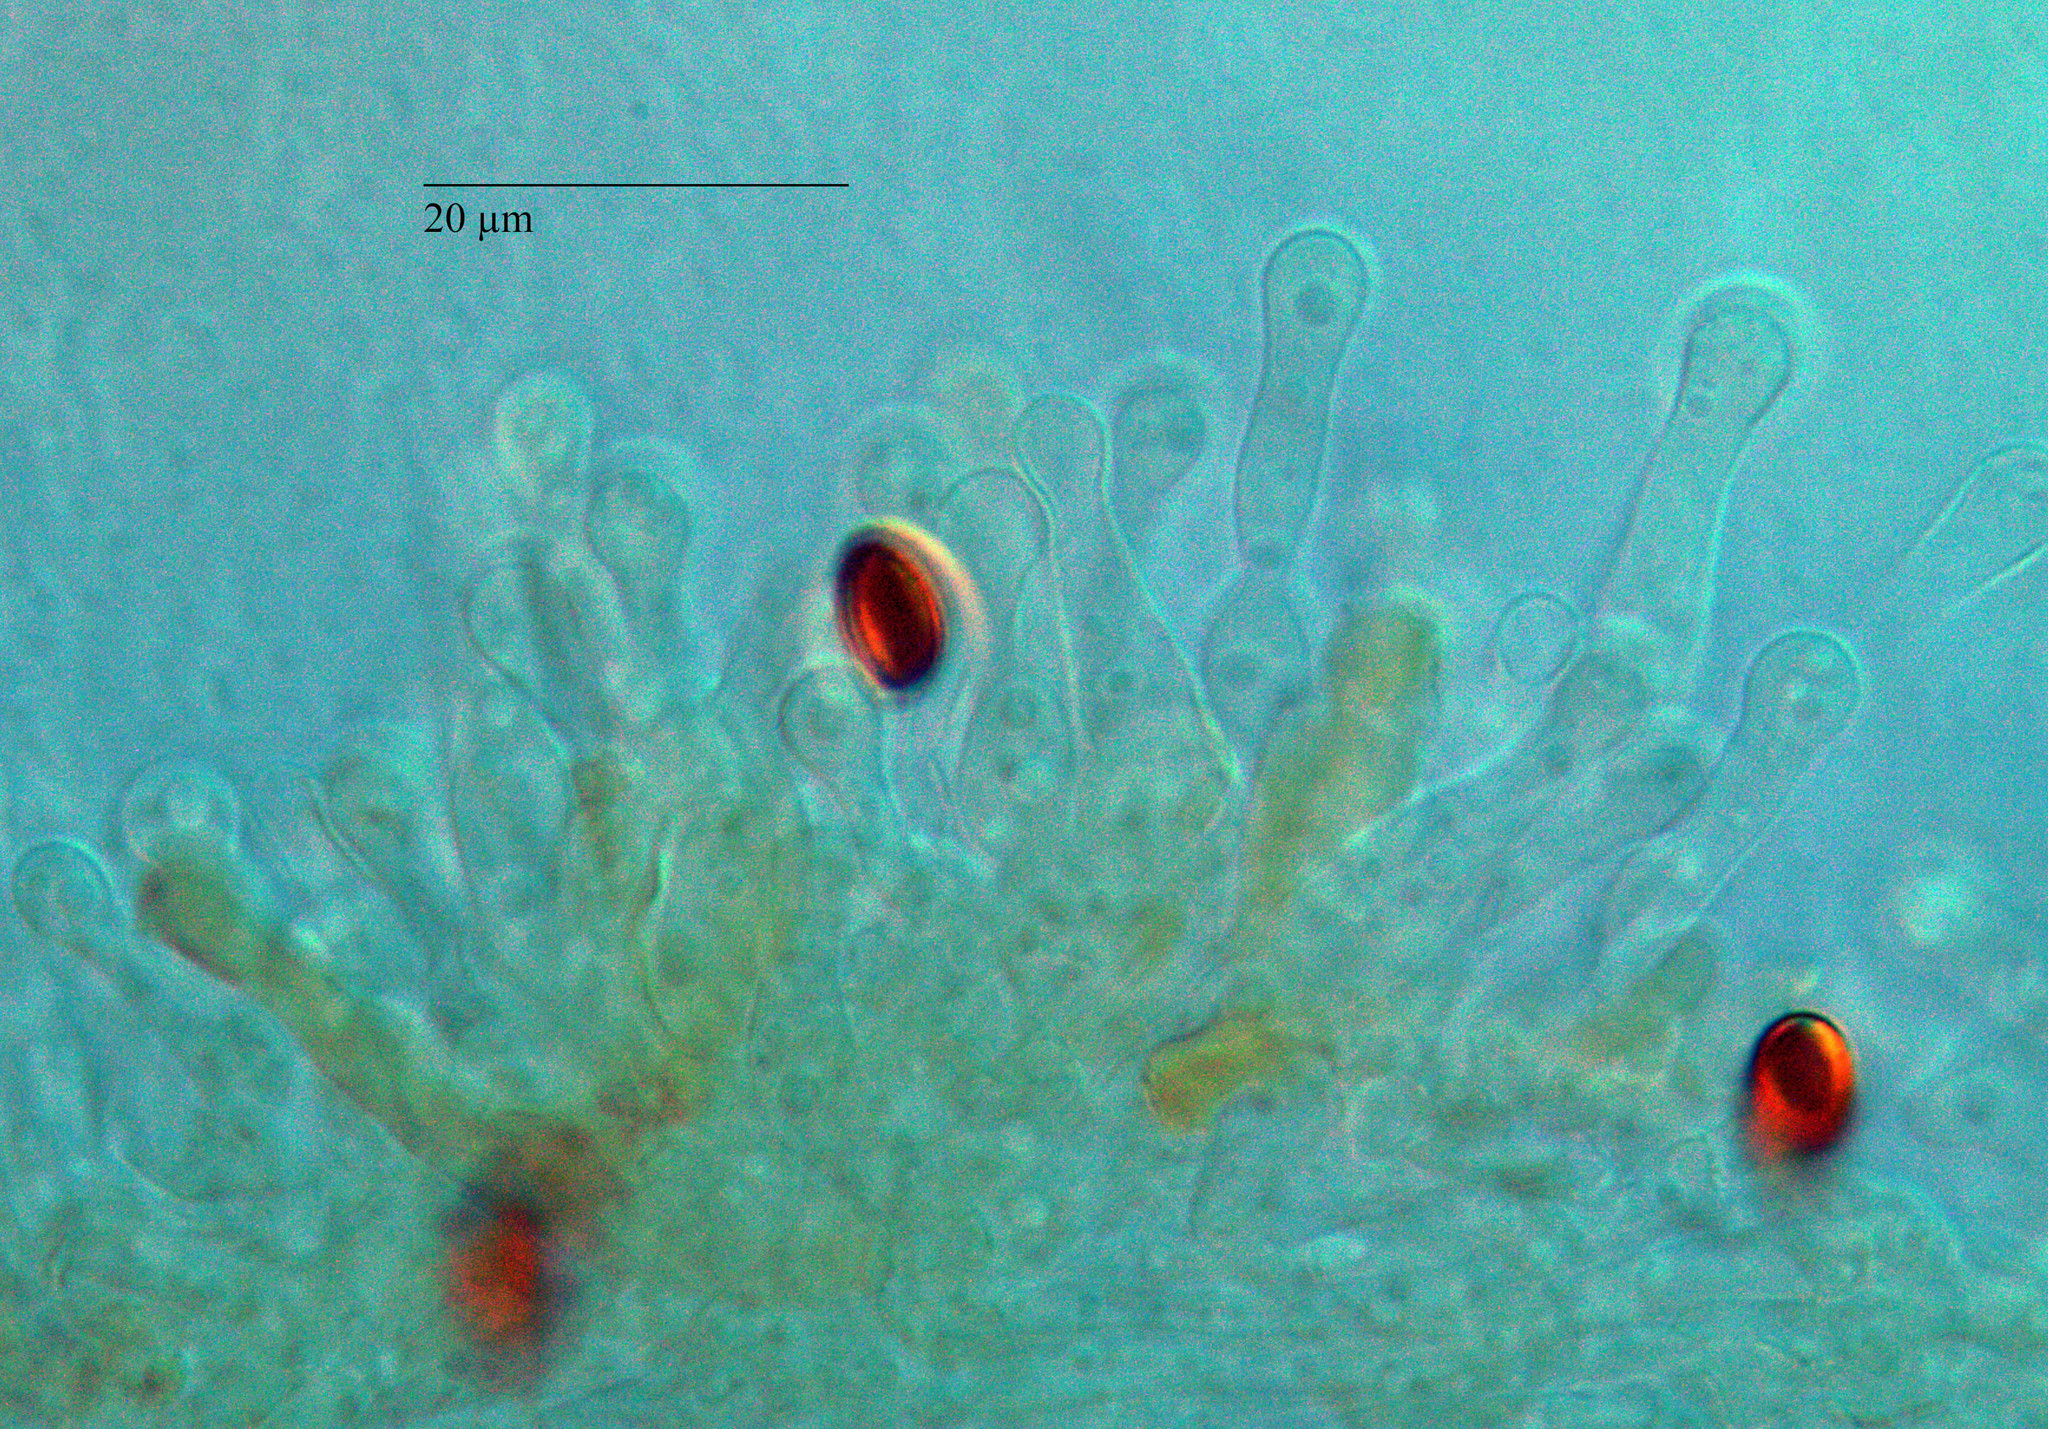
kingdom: Fungi
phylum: Basidiomycota
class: Agaricomycetes
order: Agaricales
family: Hymenogastraceae
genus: Gymnopilus
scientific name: Gymnopilus allantopus
